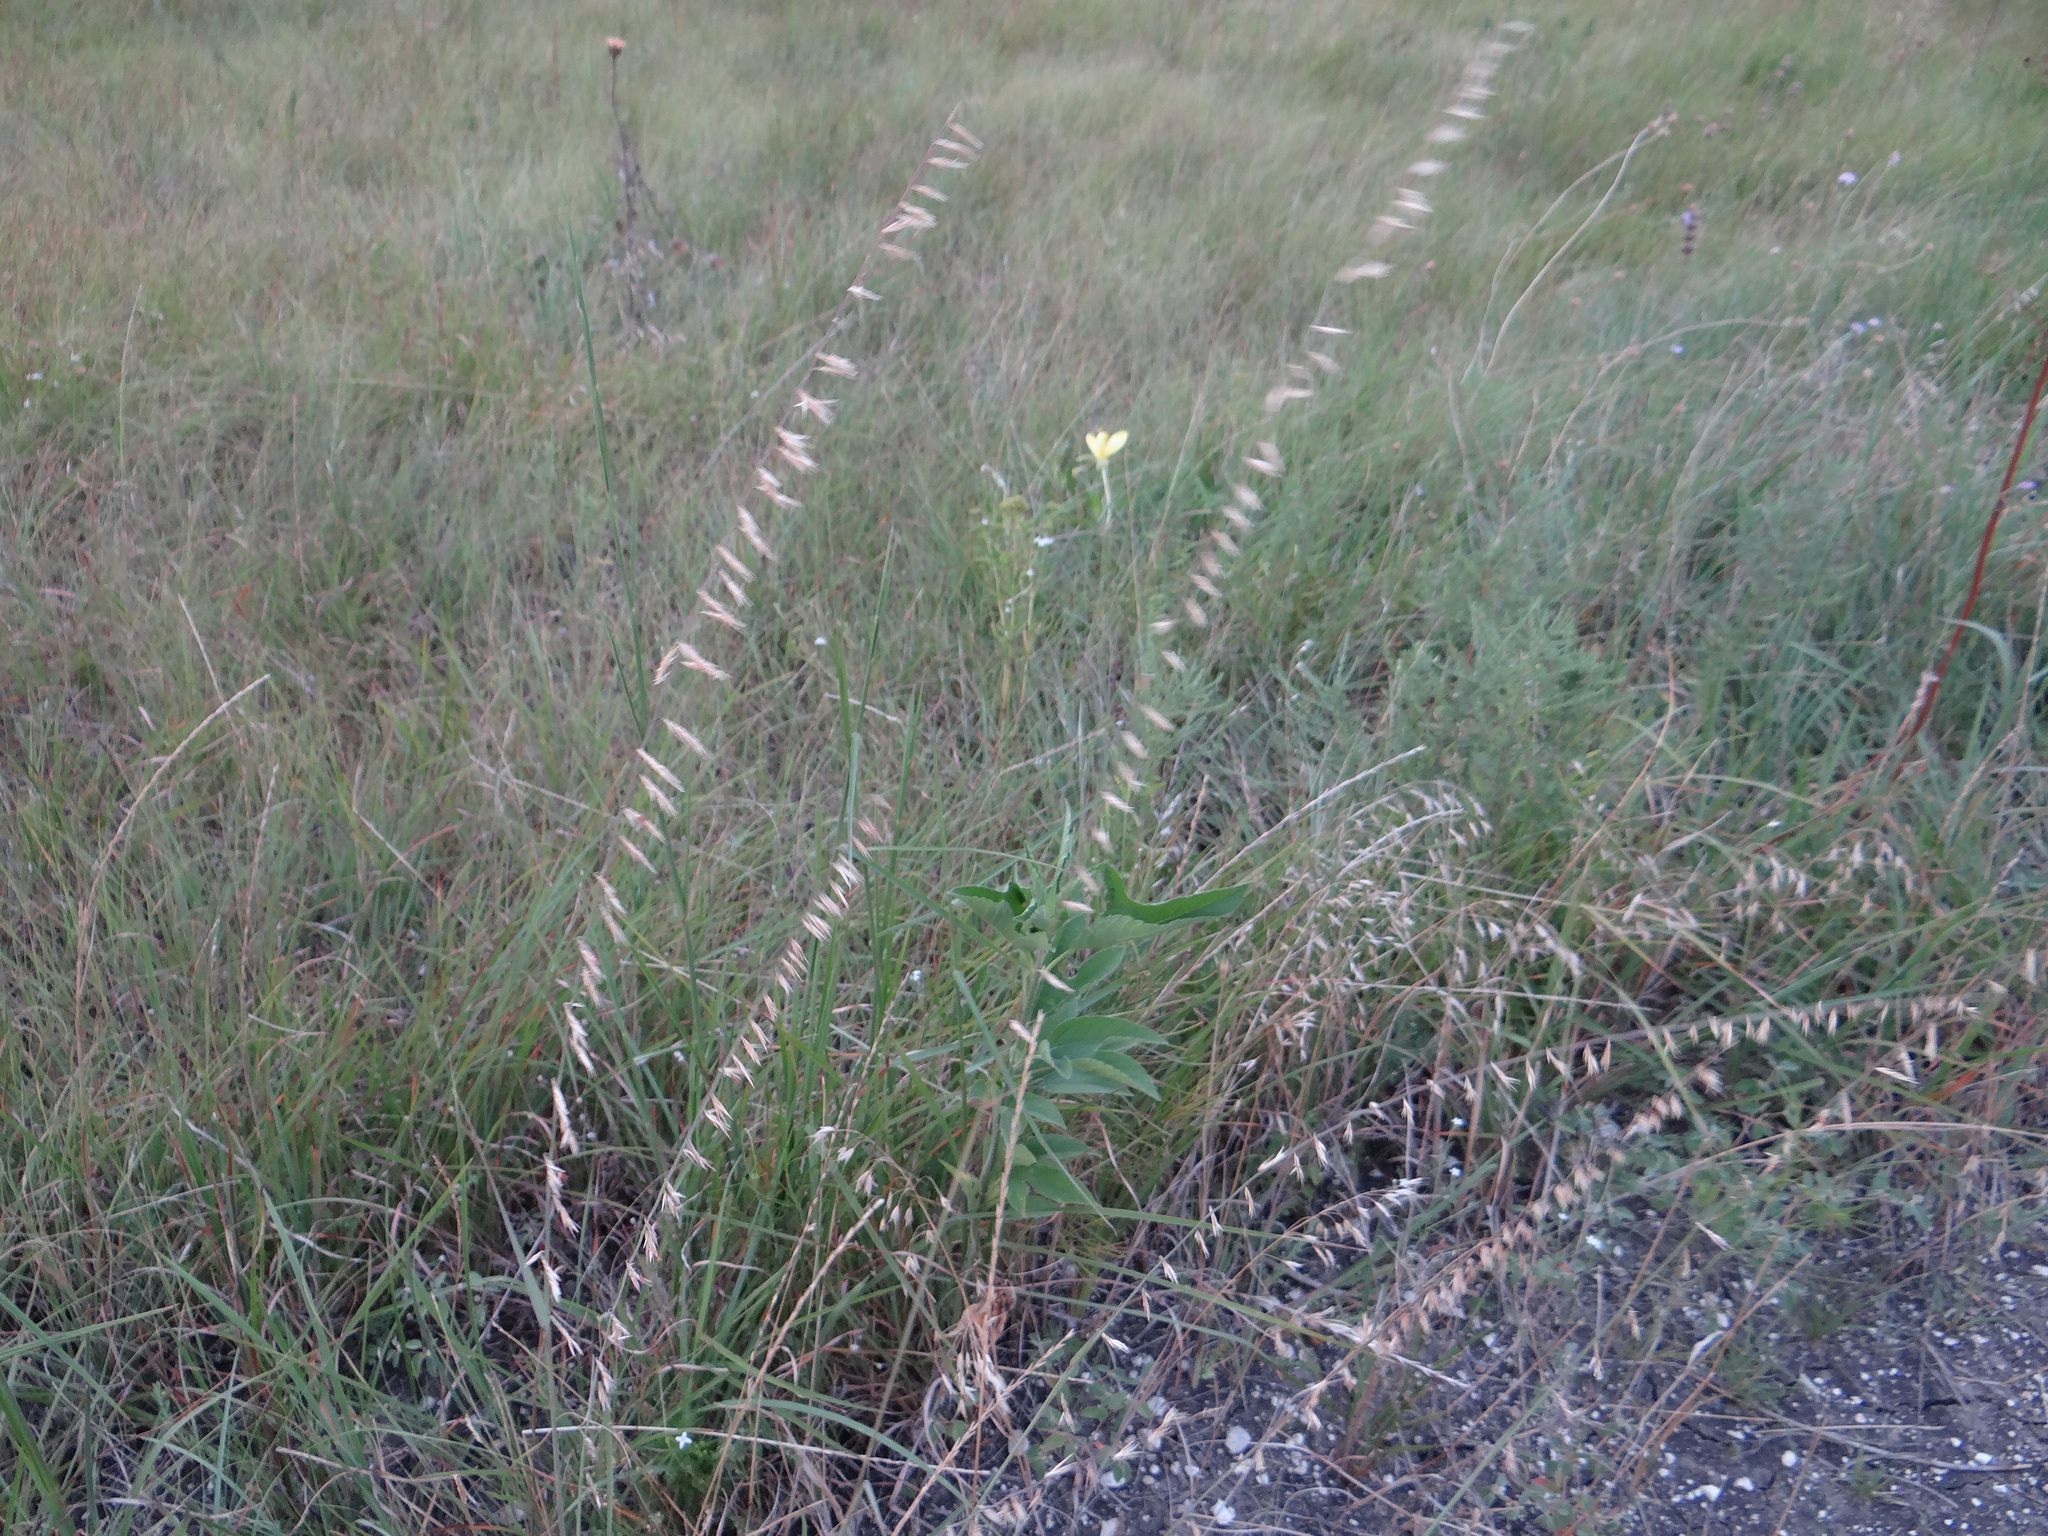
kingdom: Plantae
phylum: Tracheophyta
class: Liliopsida
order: Poales
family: Poaceae
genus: Bouteloua
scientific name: Bouteloua curtipendula
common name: Side-oats grama
